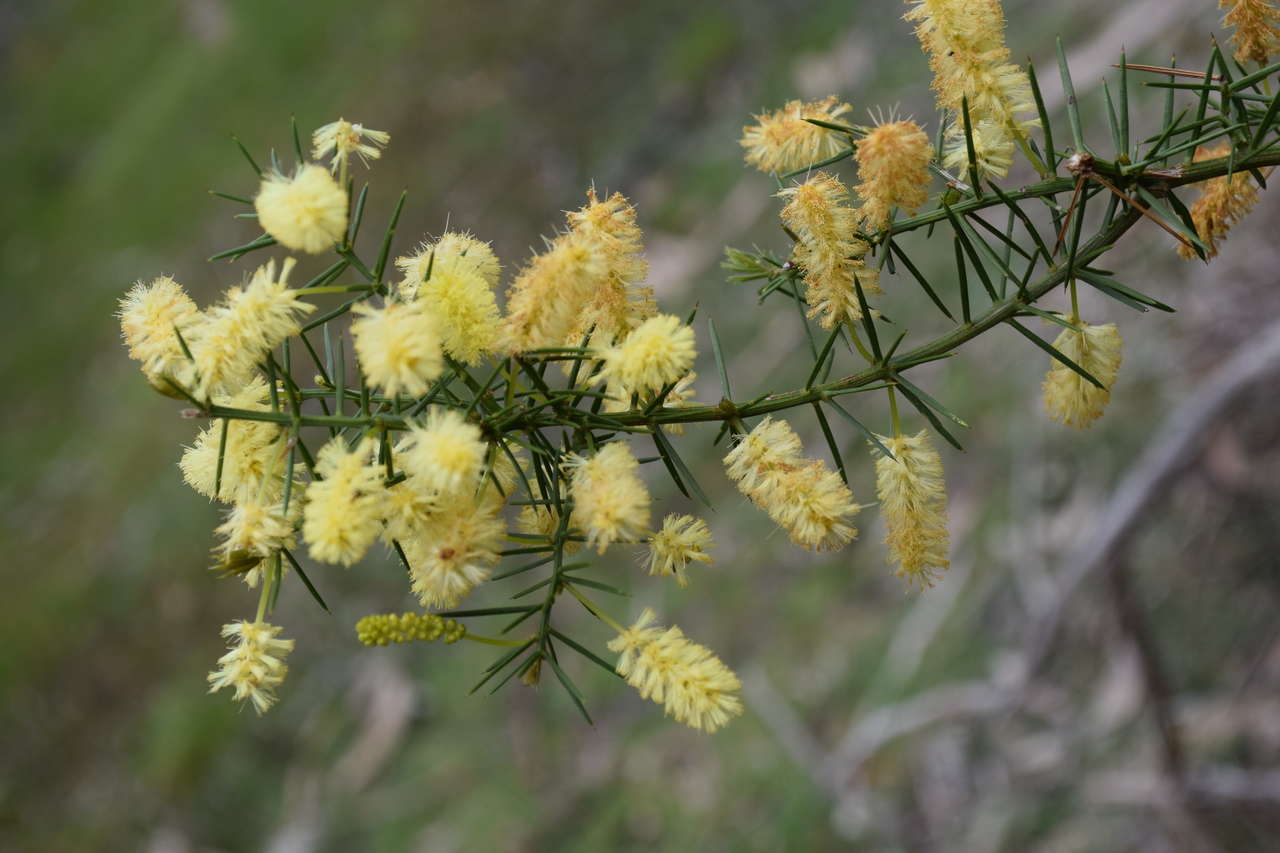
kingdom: Plantae
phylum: Tracheophyta
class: Magnoliopsida
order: Fabales
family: Fabaceae
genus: Acacia
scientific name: Acacia verticillata
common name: Prickly moses
